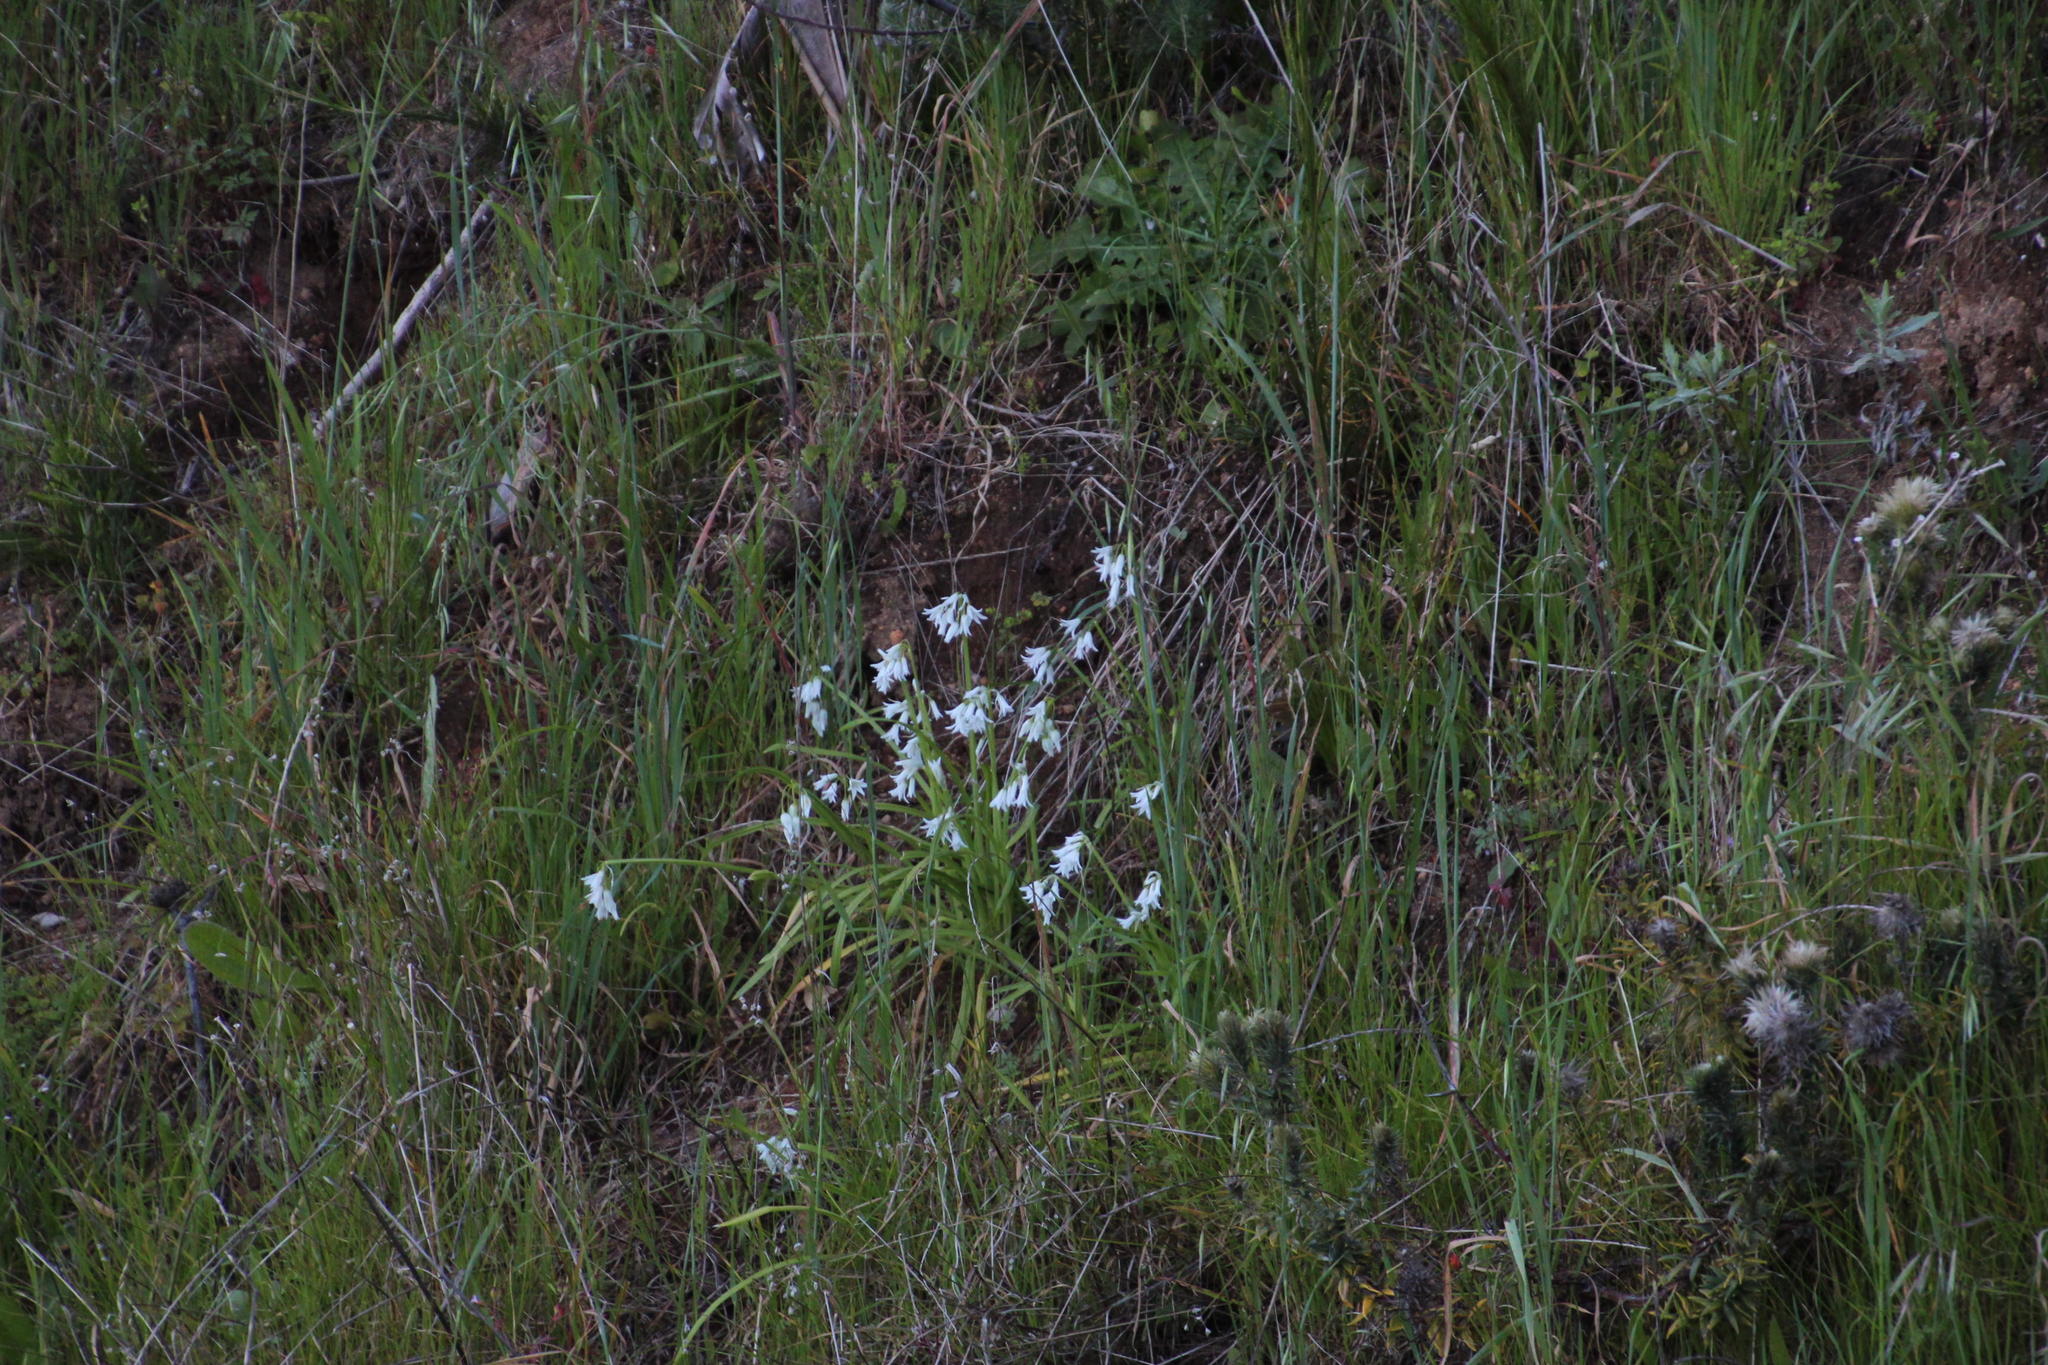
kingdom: Plantae
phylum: Tracheophyta
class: Liliopsida
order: Asparagales
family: Amaryllidaceae
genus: Allium
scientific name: Allium triquetrum
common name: Three-cornered garlic
